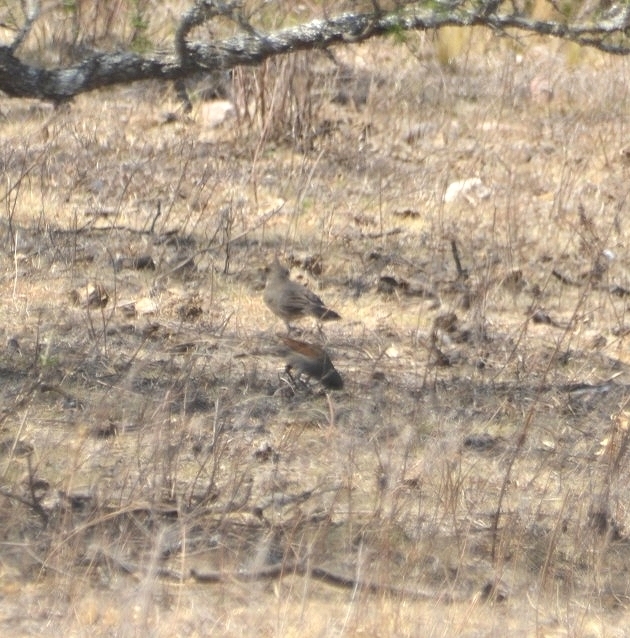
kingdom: Animalia
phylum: Chordata
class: Aves
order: Passeriformes
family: Turdidae
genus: Turdus
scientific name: Turdus amaurochalinus
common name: Creamy-bellied thrush
